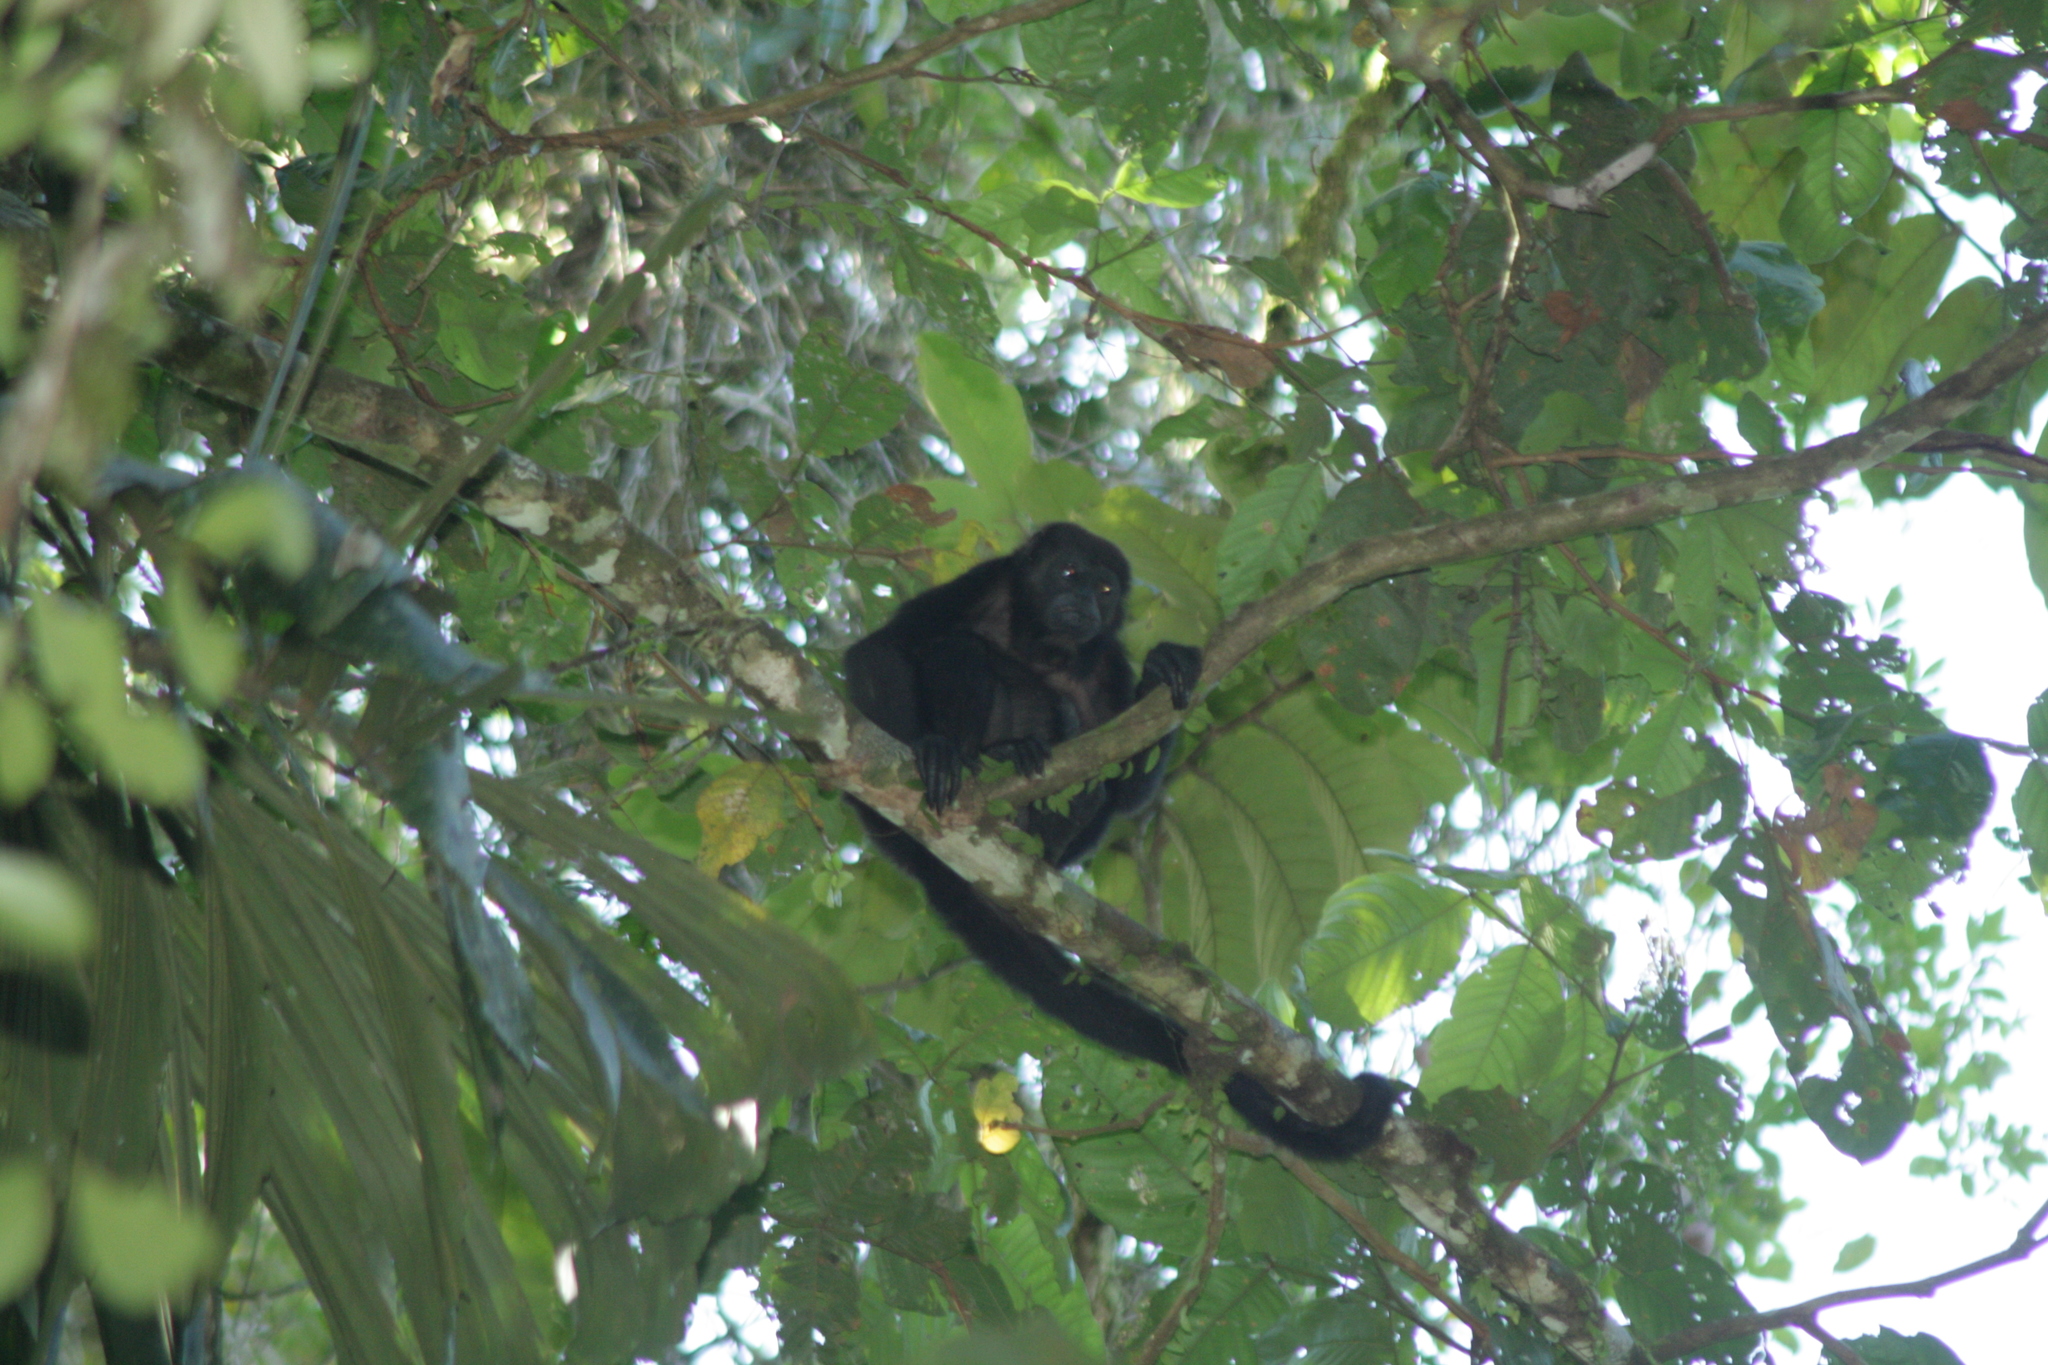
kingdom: Animalia
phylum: Chordata
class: Mammalia
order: Primates
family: Atelidae
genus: Alouatta
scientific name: Alouatta palliata
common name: Mantled howler
